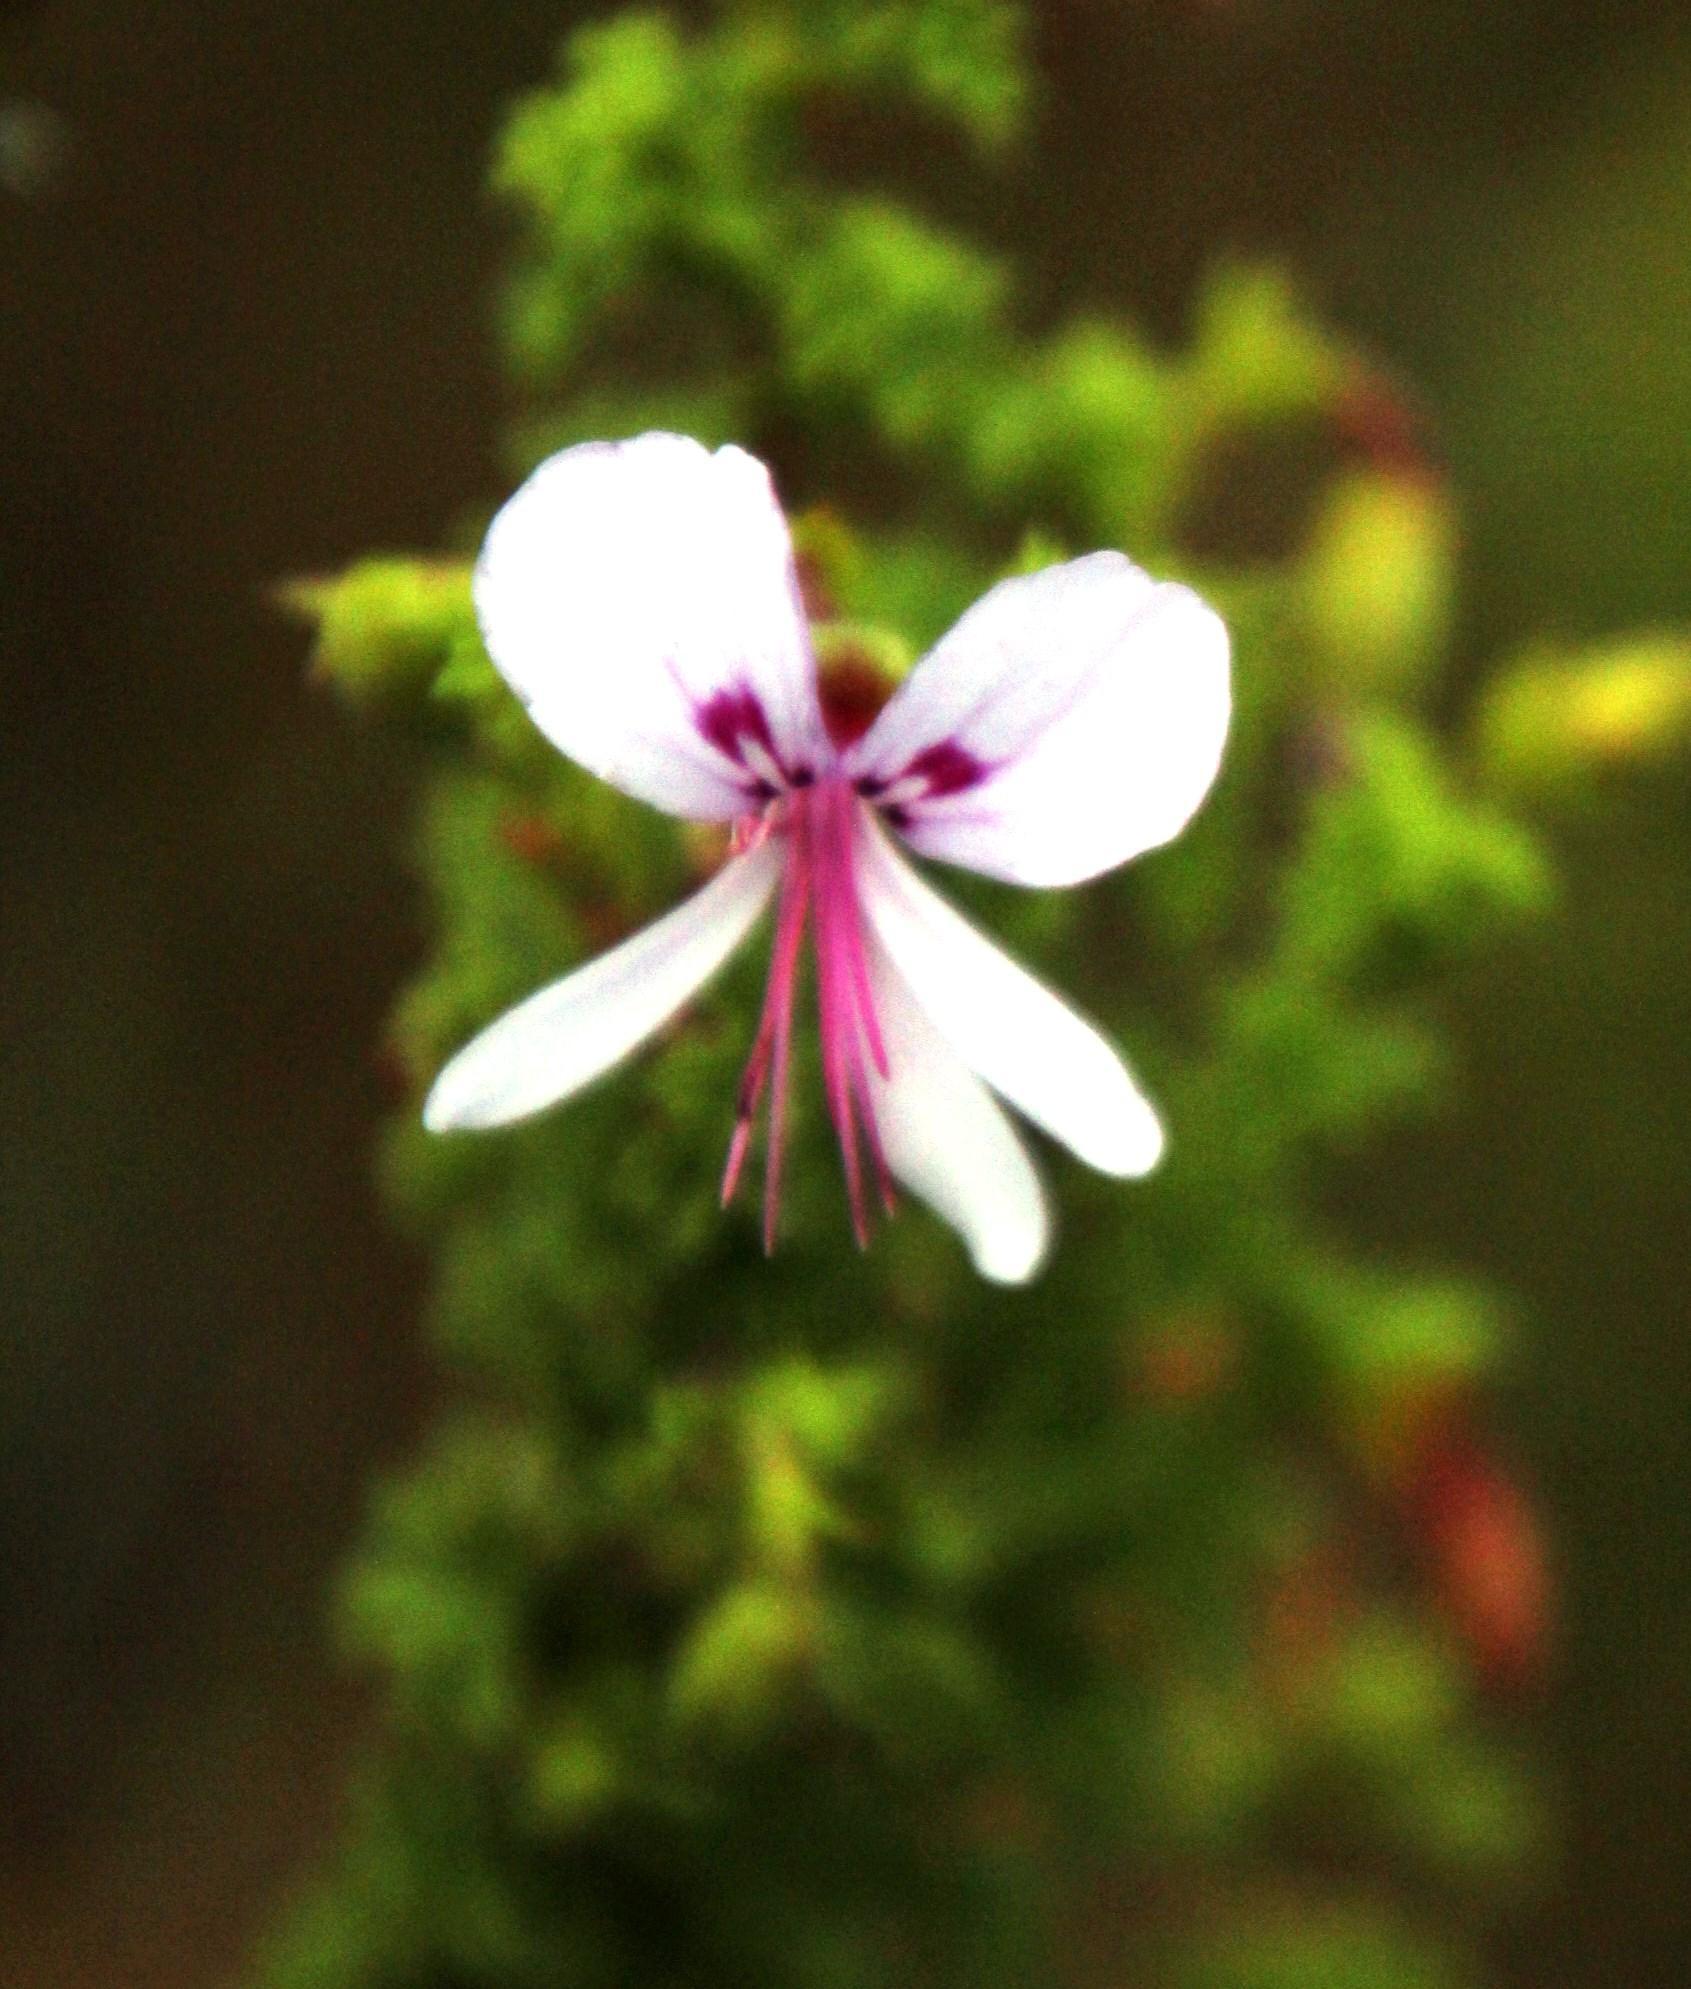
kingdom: Plantae
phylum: Tracheophyta
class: Magnoliopsida
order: Geraniales
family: Geraniaceae
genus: Pelargonium
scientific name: Pelargonium hermaniifolium
